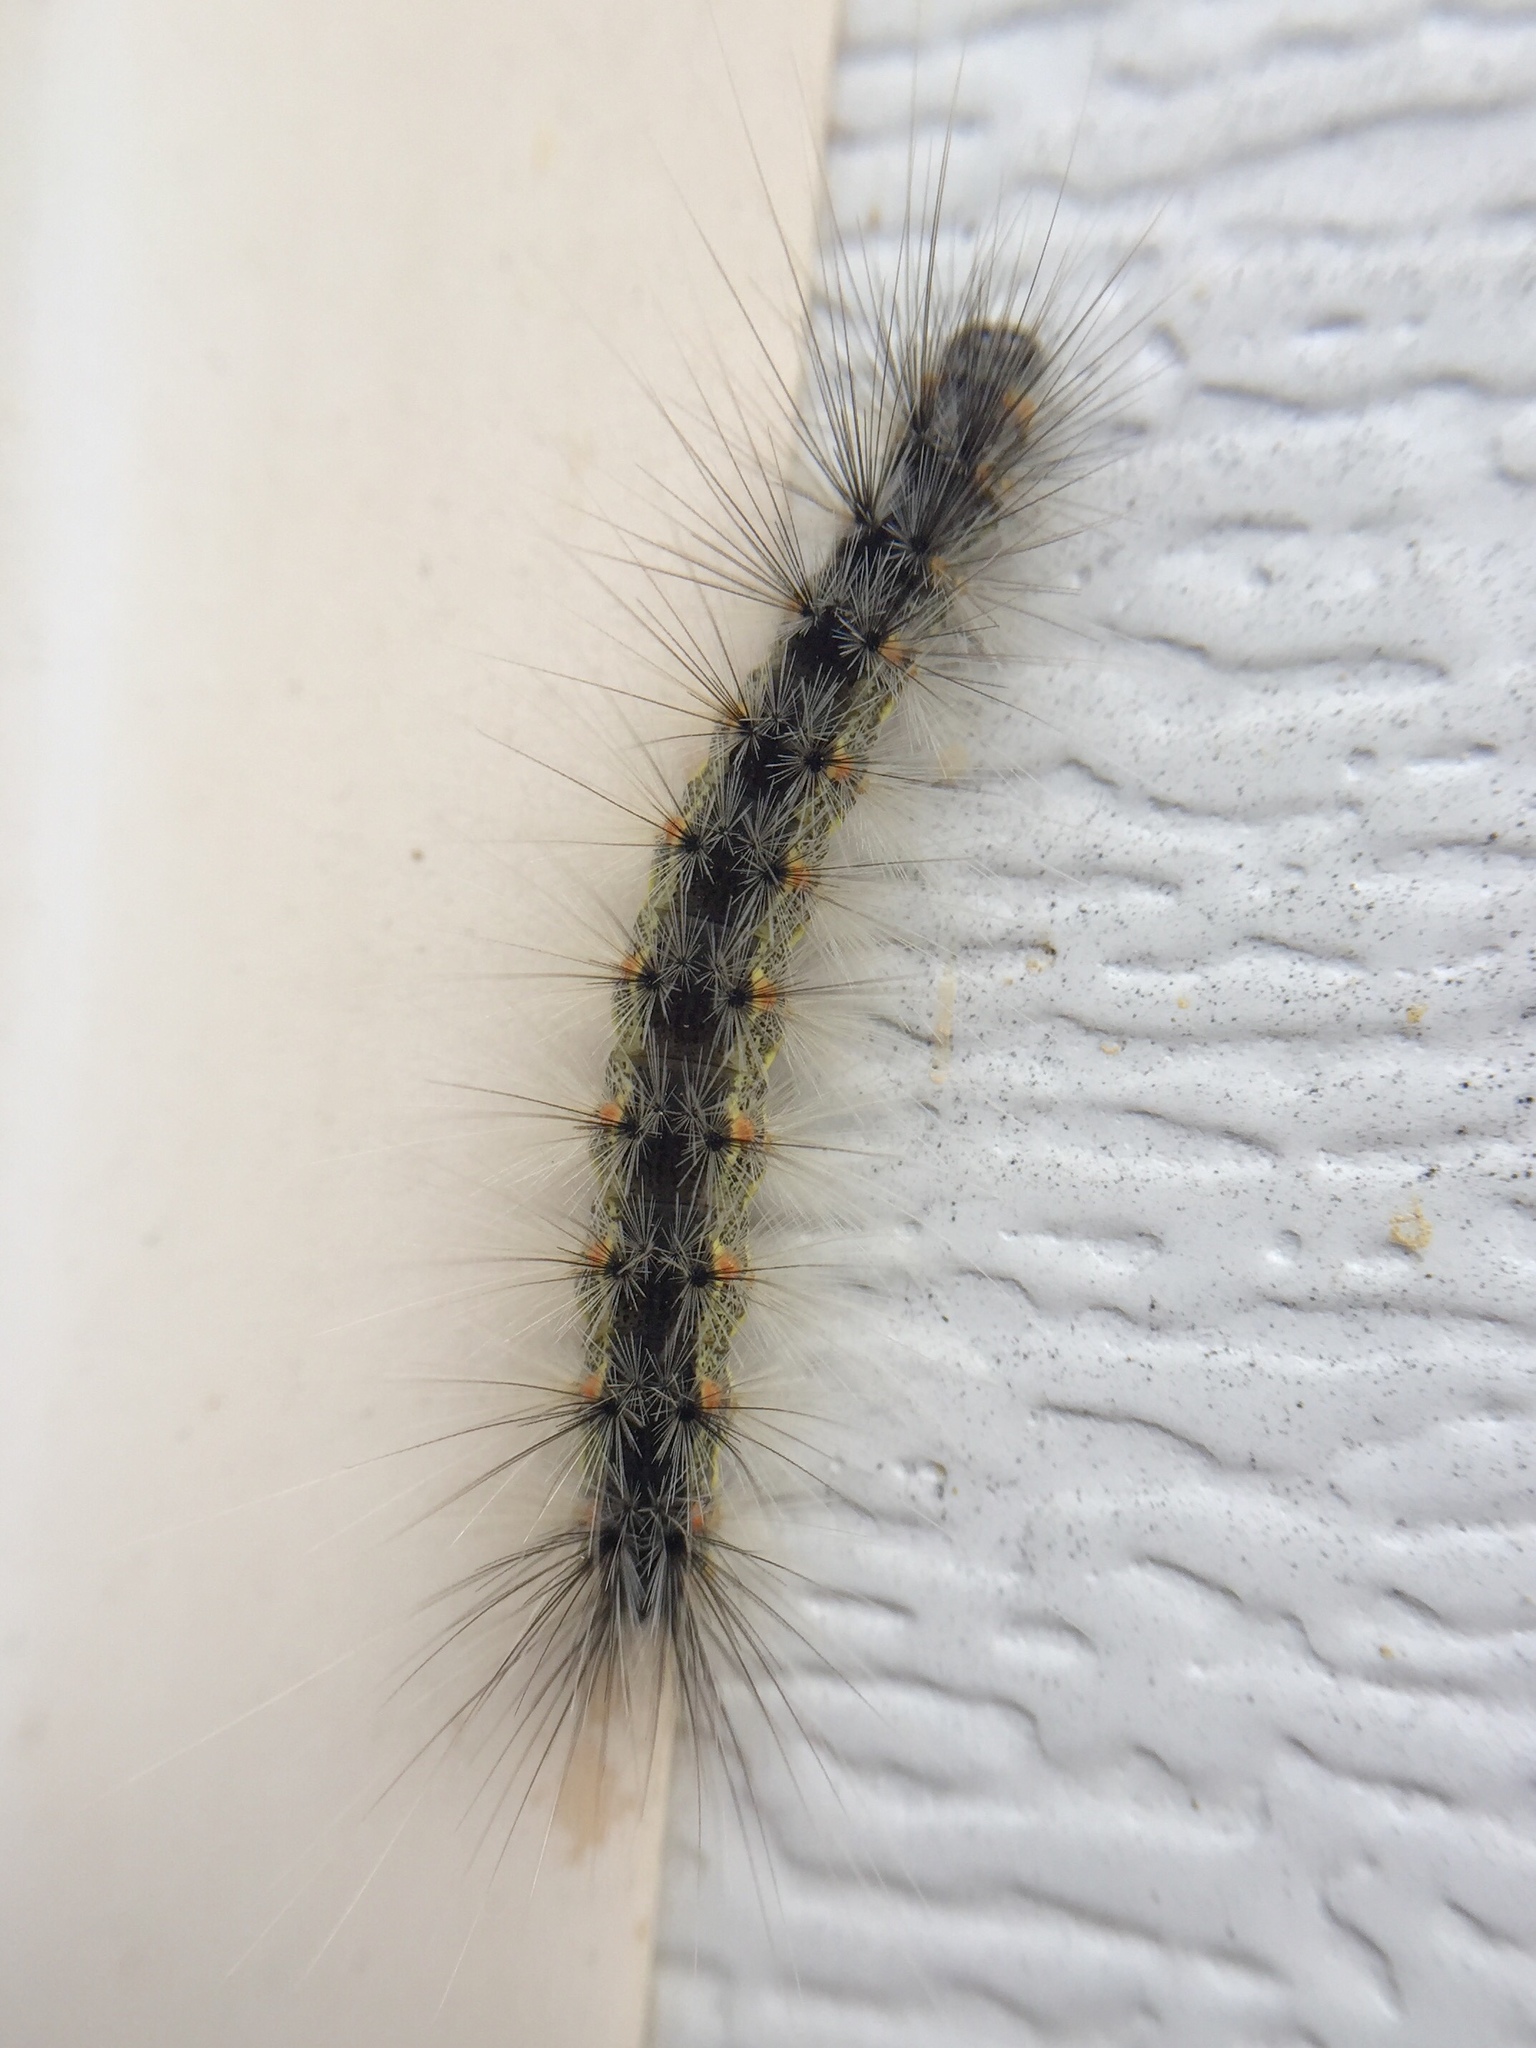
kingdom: Animalia
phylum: Arthropoda
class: Insecta
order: Lepidoptera
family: Erebidae
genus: Hyphantria
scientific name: Hyphantria cunea
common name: American white moth
